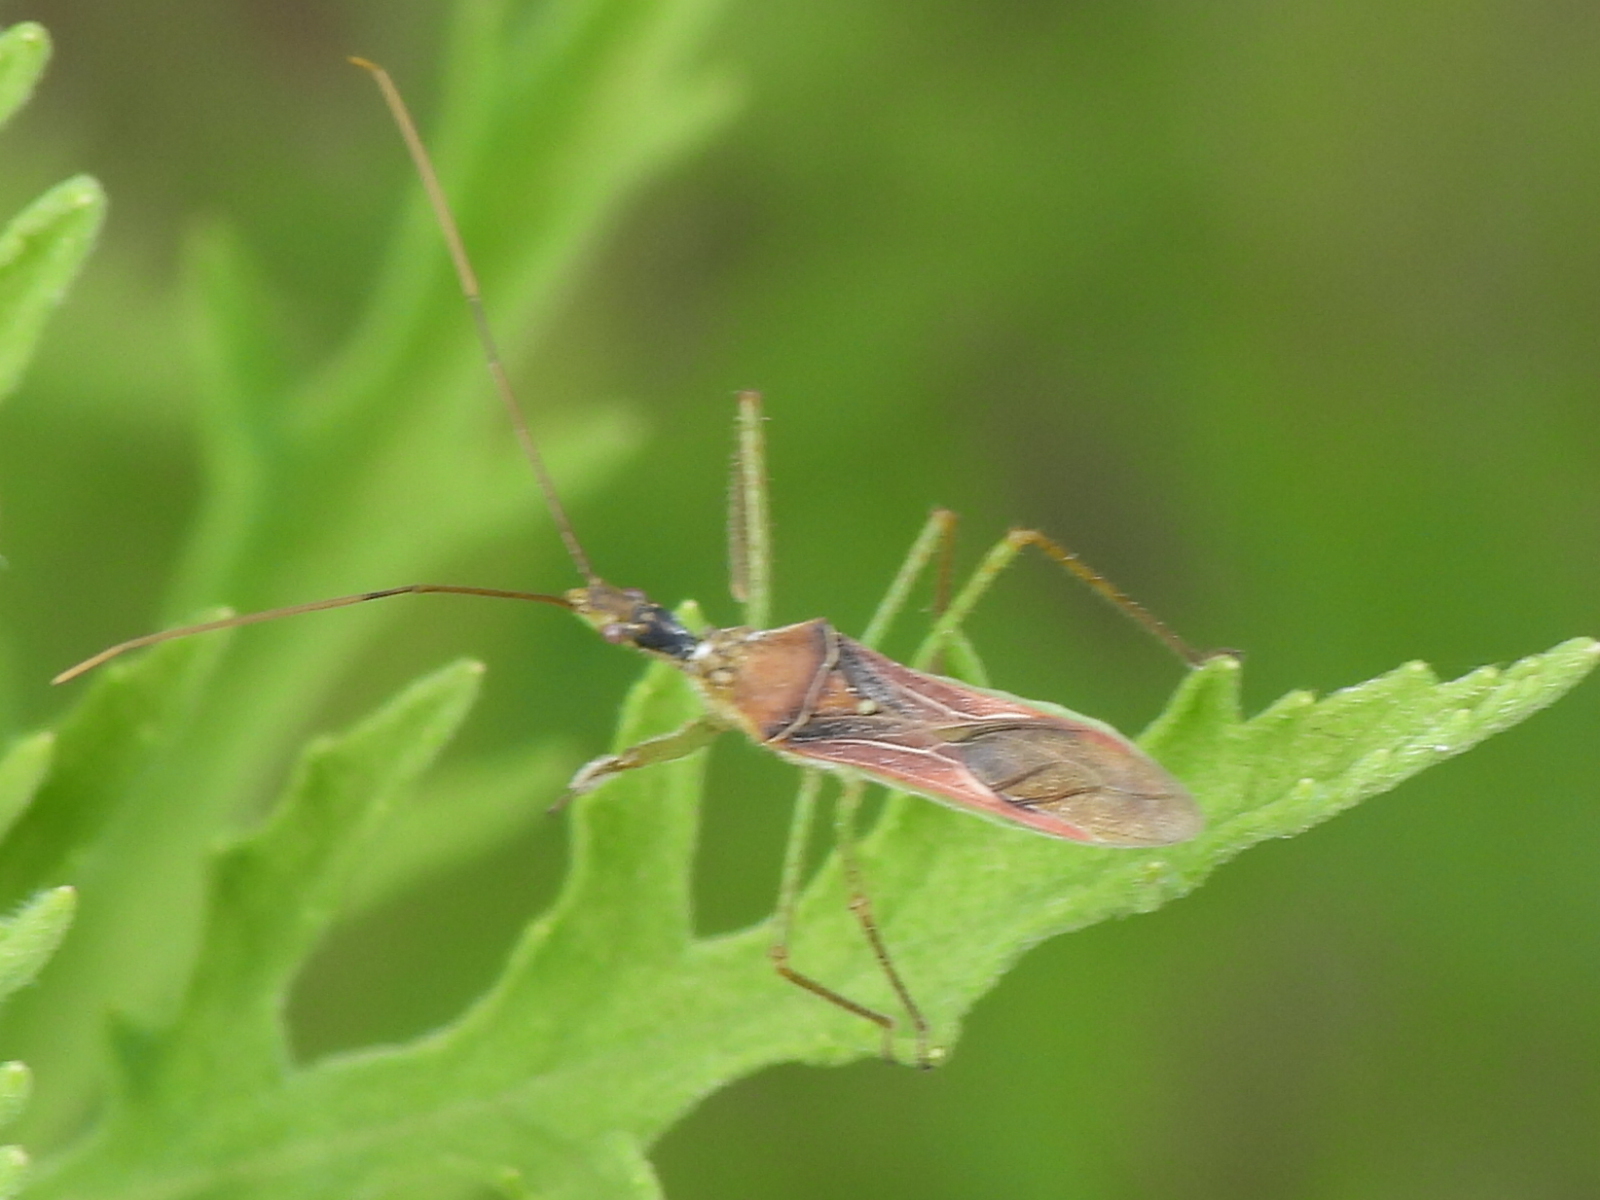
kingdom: Animalia
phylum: Arthropoda
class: Insecta
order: Hemiptera
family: Reduviidae
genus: Zelus
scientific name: Zelus renardii
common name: Assassin bug
